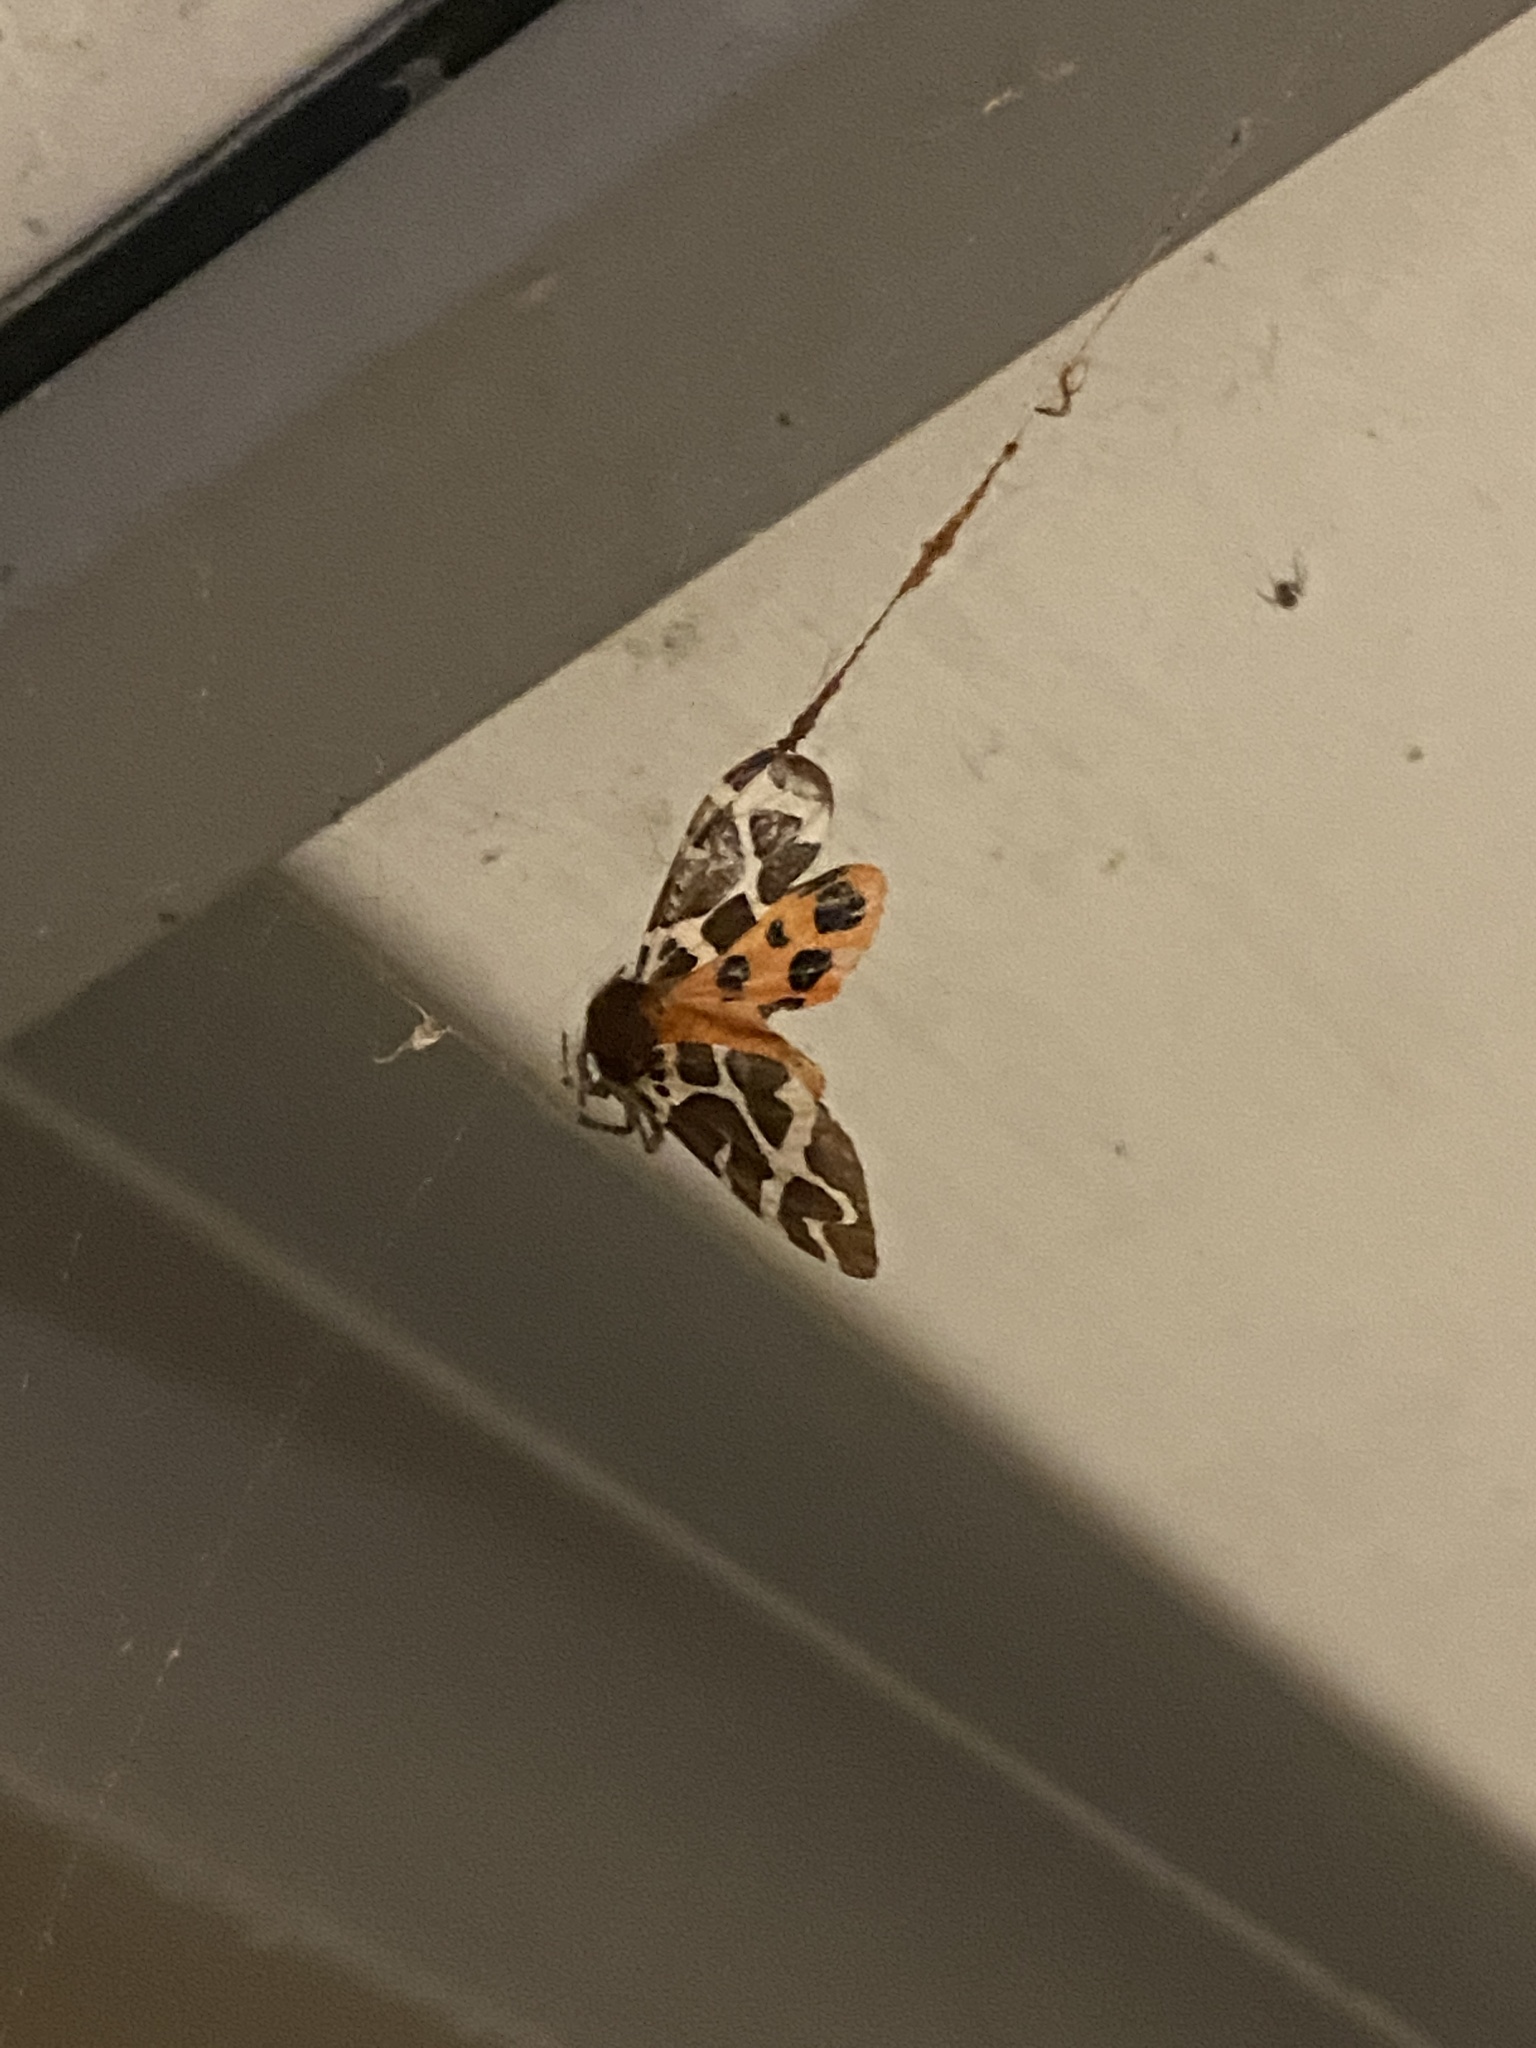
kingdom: Animalia
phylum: Arthropoda
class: Insecta
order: Lepidoptera
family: Erebidae
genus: Arctia
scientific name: Arctia caja
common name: Garden tiger
